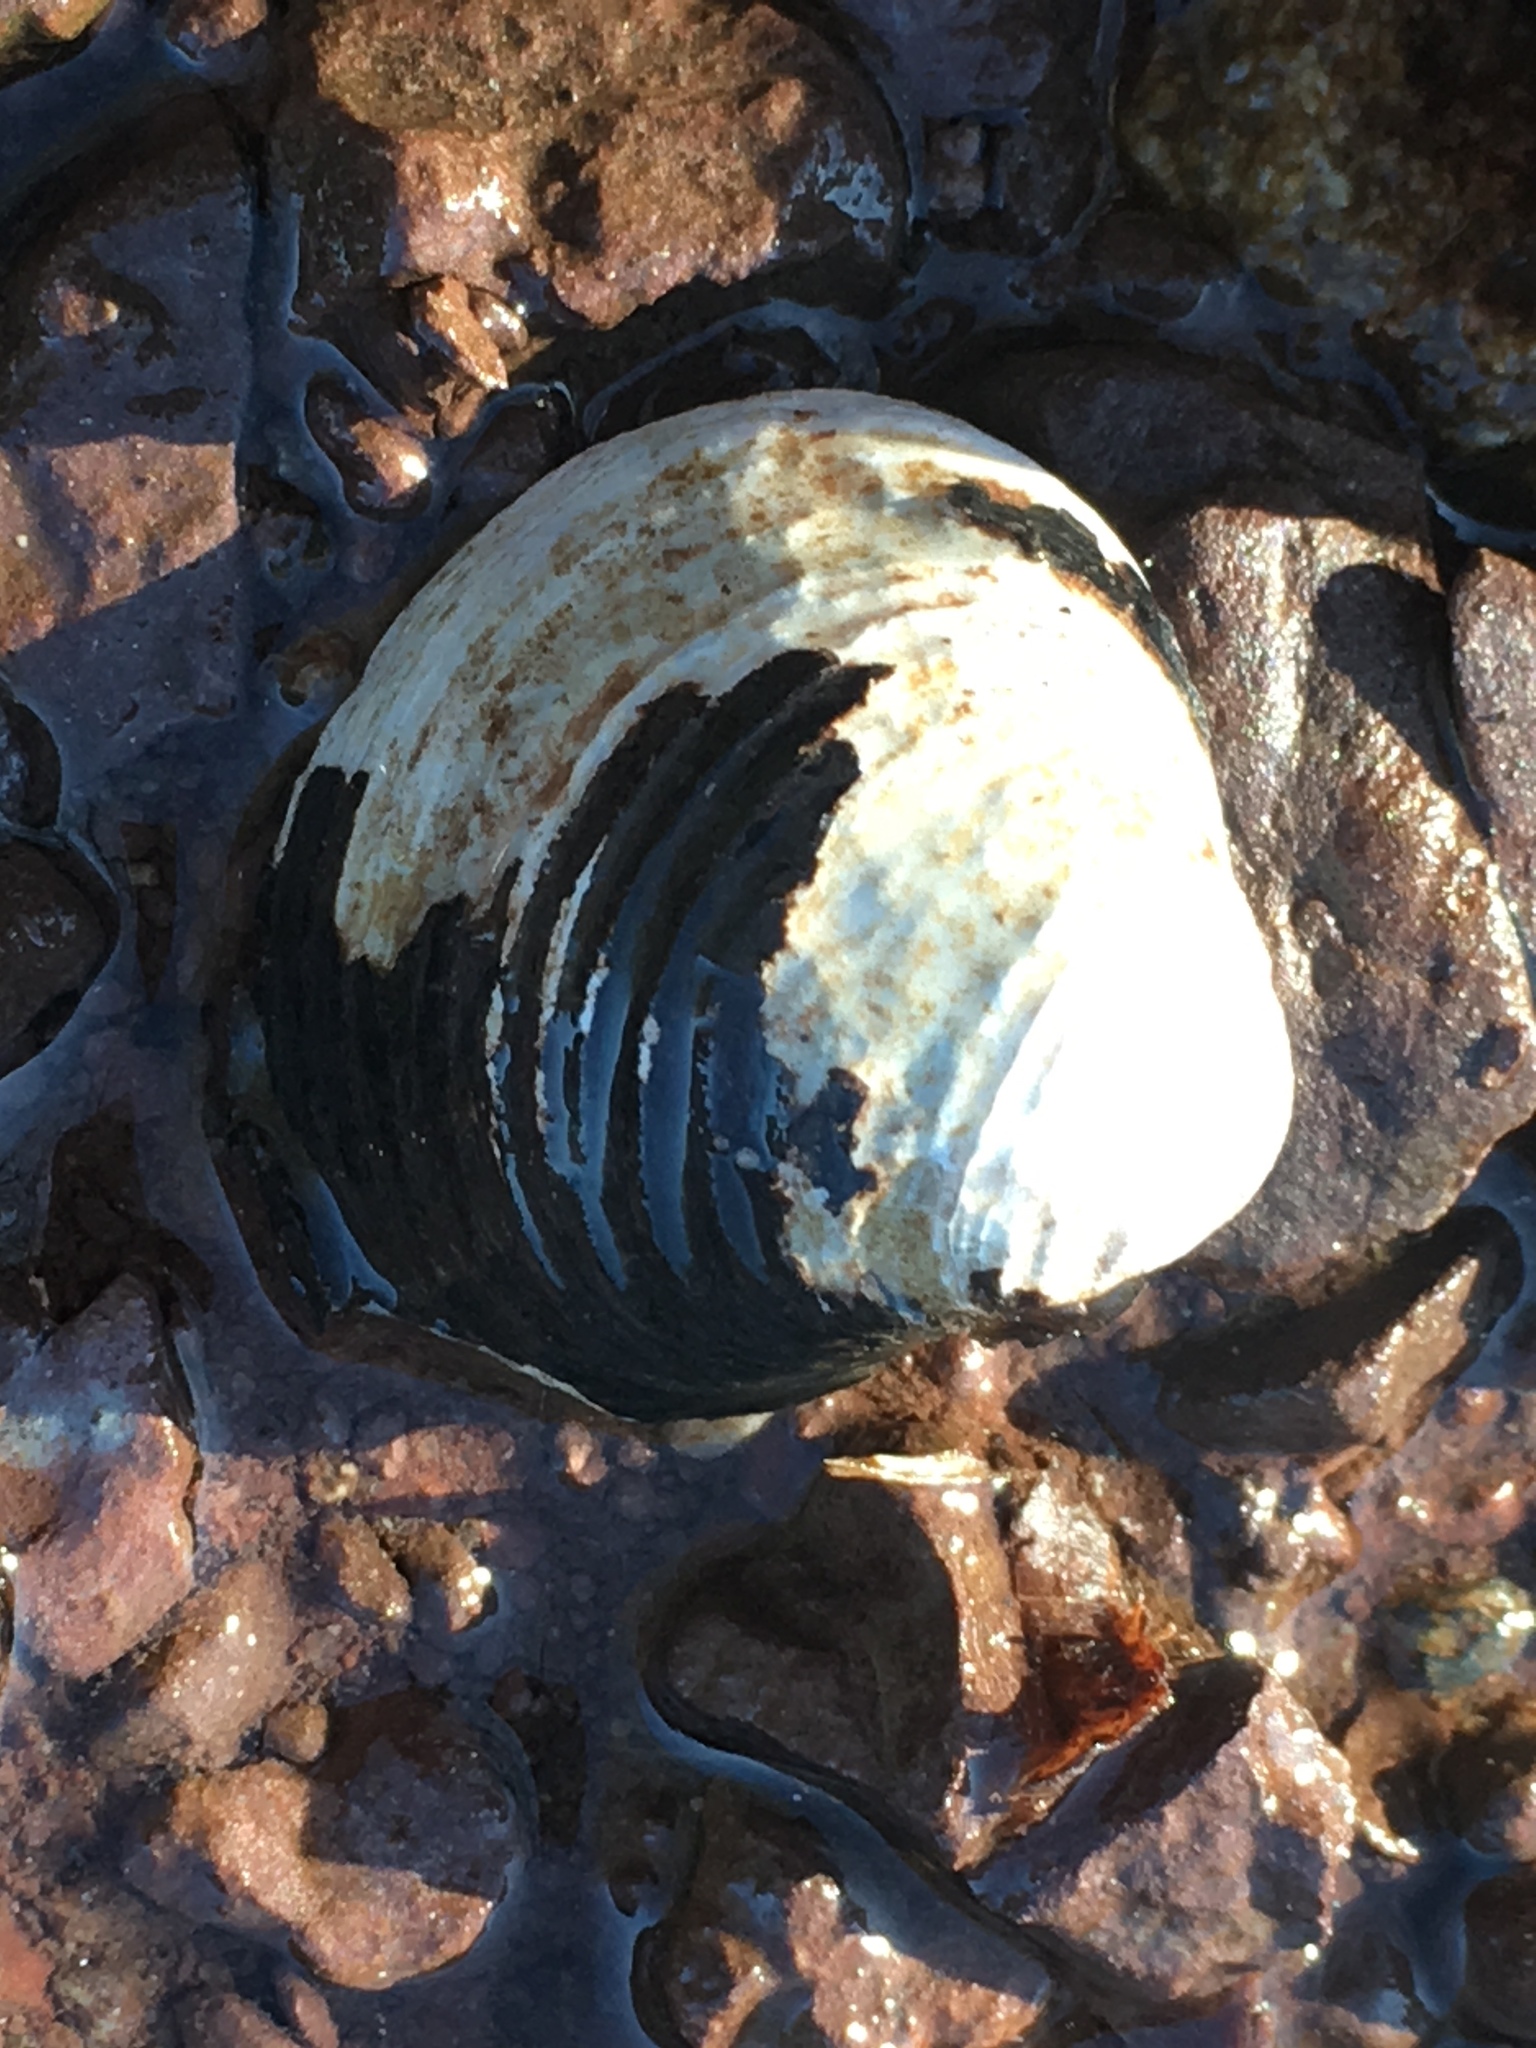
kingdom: Animalia
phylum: Mollusca
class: Bivalvia
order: Venerida
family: Cyrenidae
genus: Corbicula
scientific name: Corbicula fluminea
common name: Asian clam
